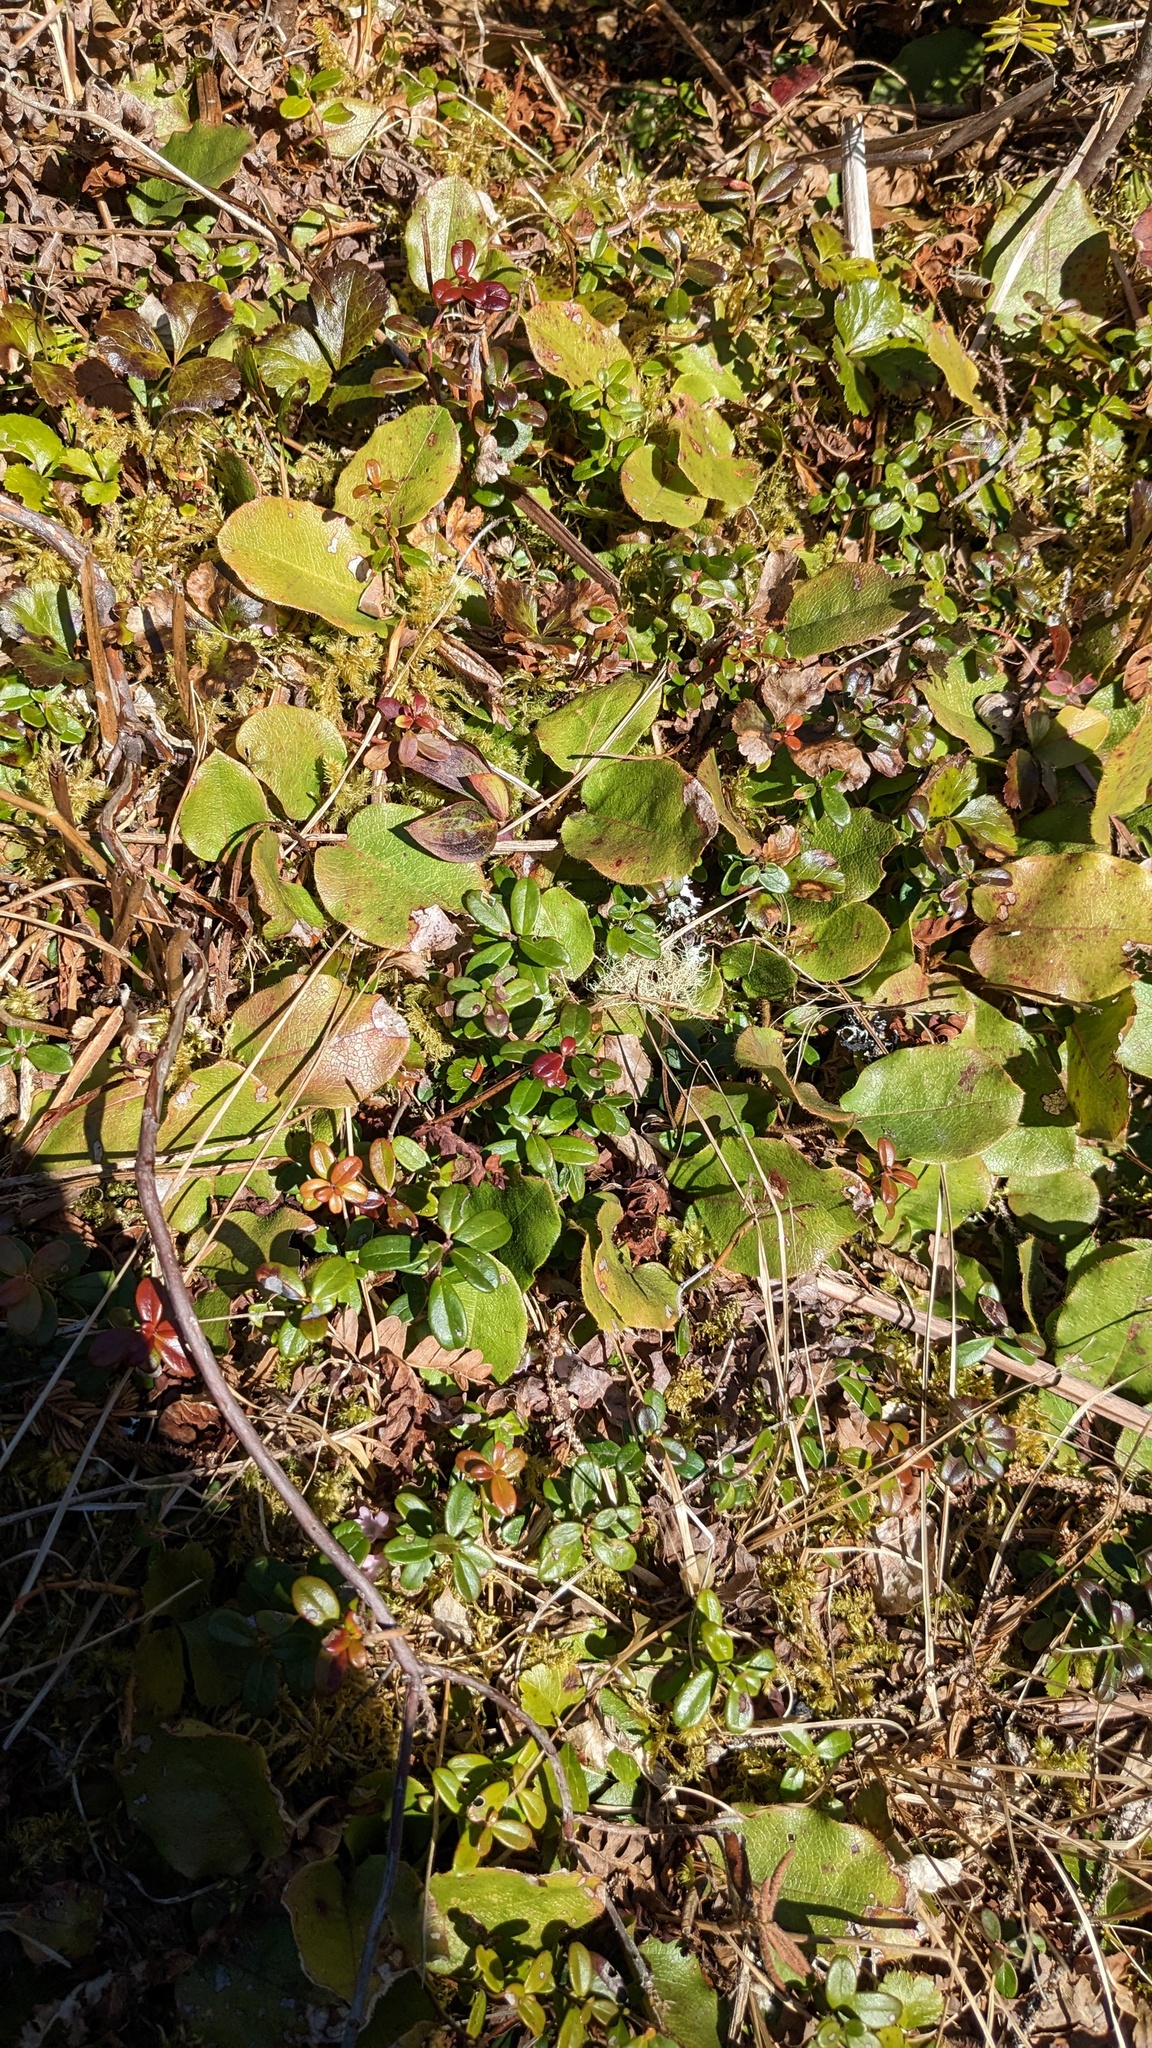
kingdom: Plantae
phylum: Tracheophyta
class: Magnoliopsida
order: Ericales
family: Ericaceae
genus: Epigaea
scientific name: Epigaea repens
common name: Gravelroot
